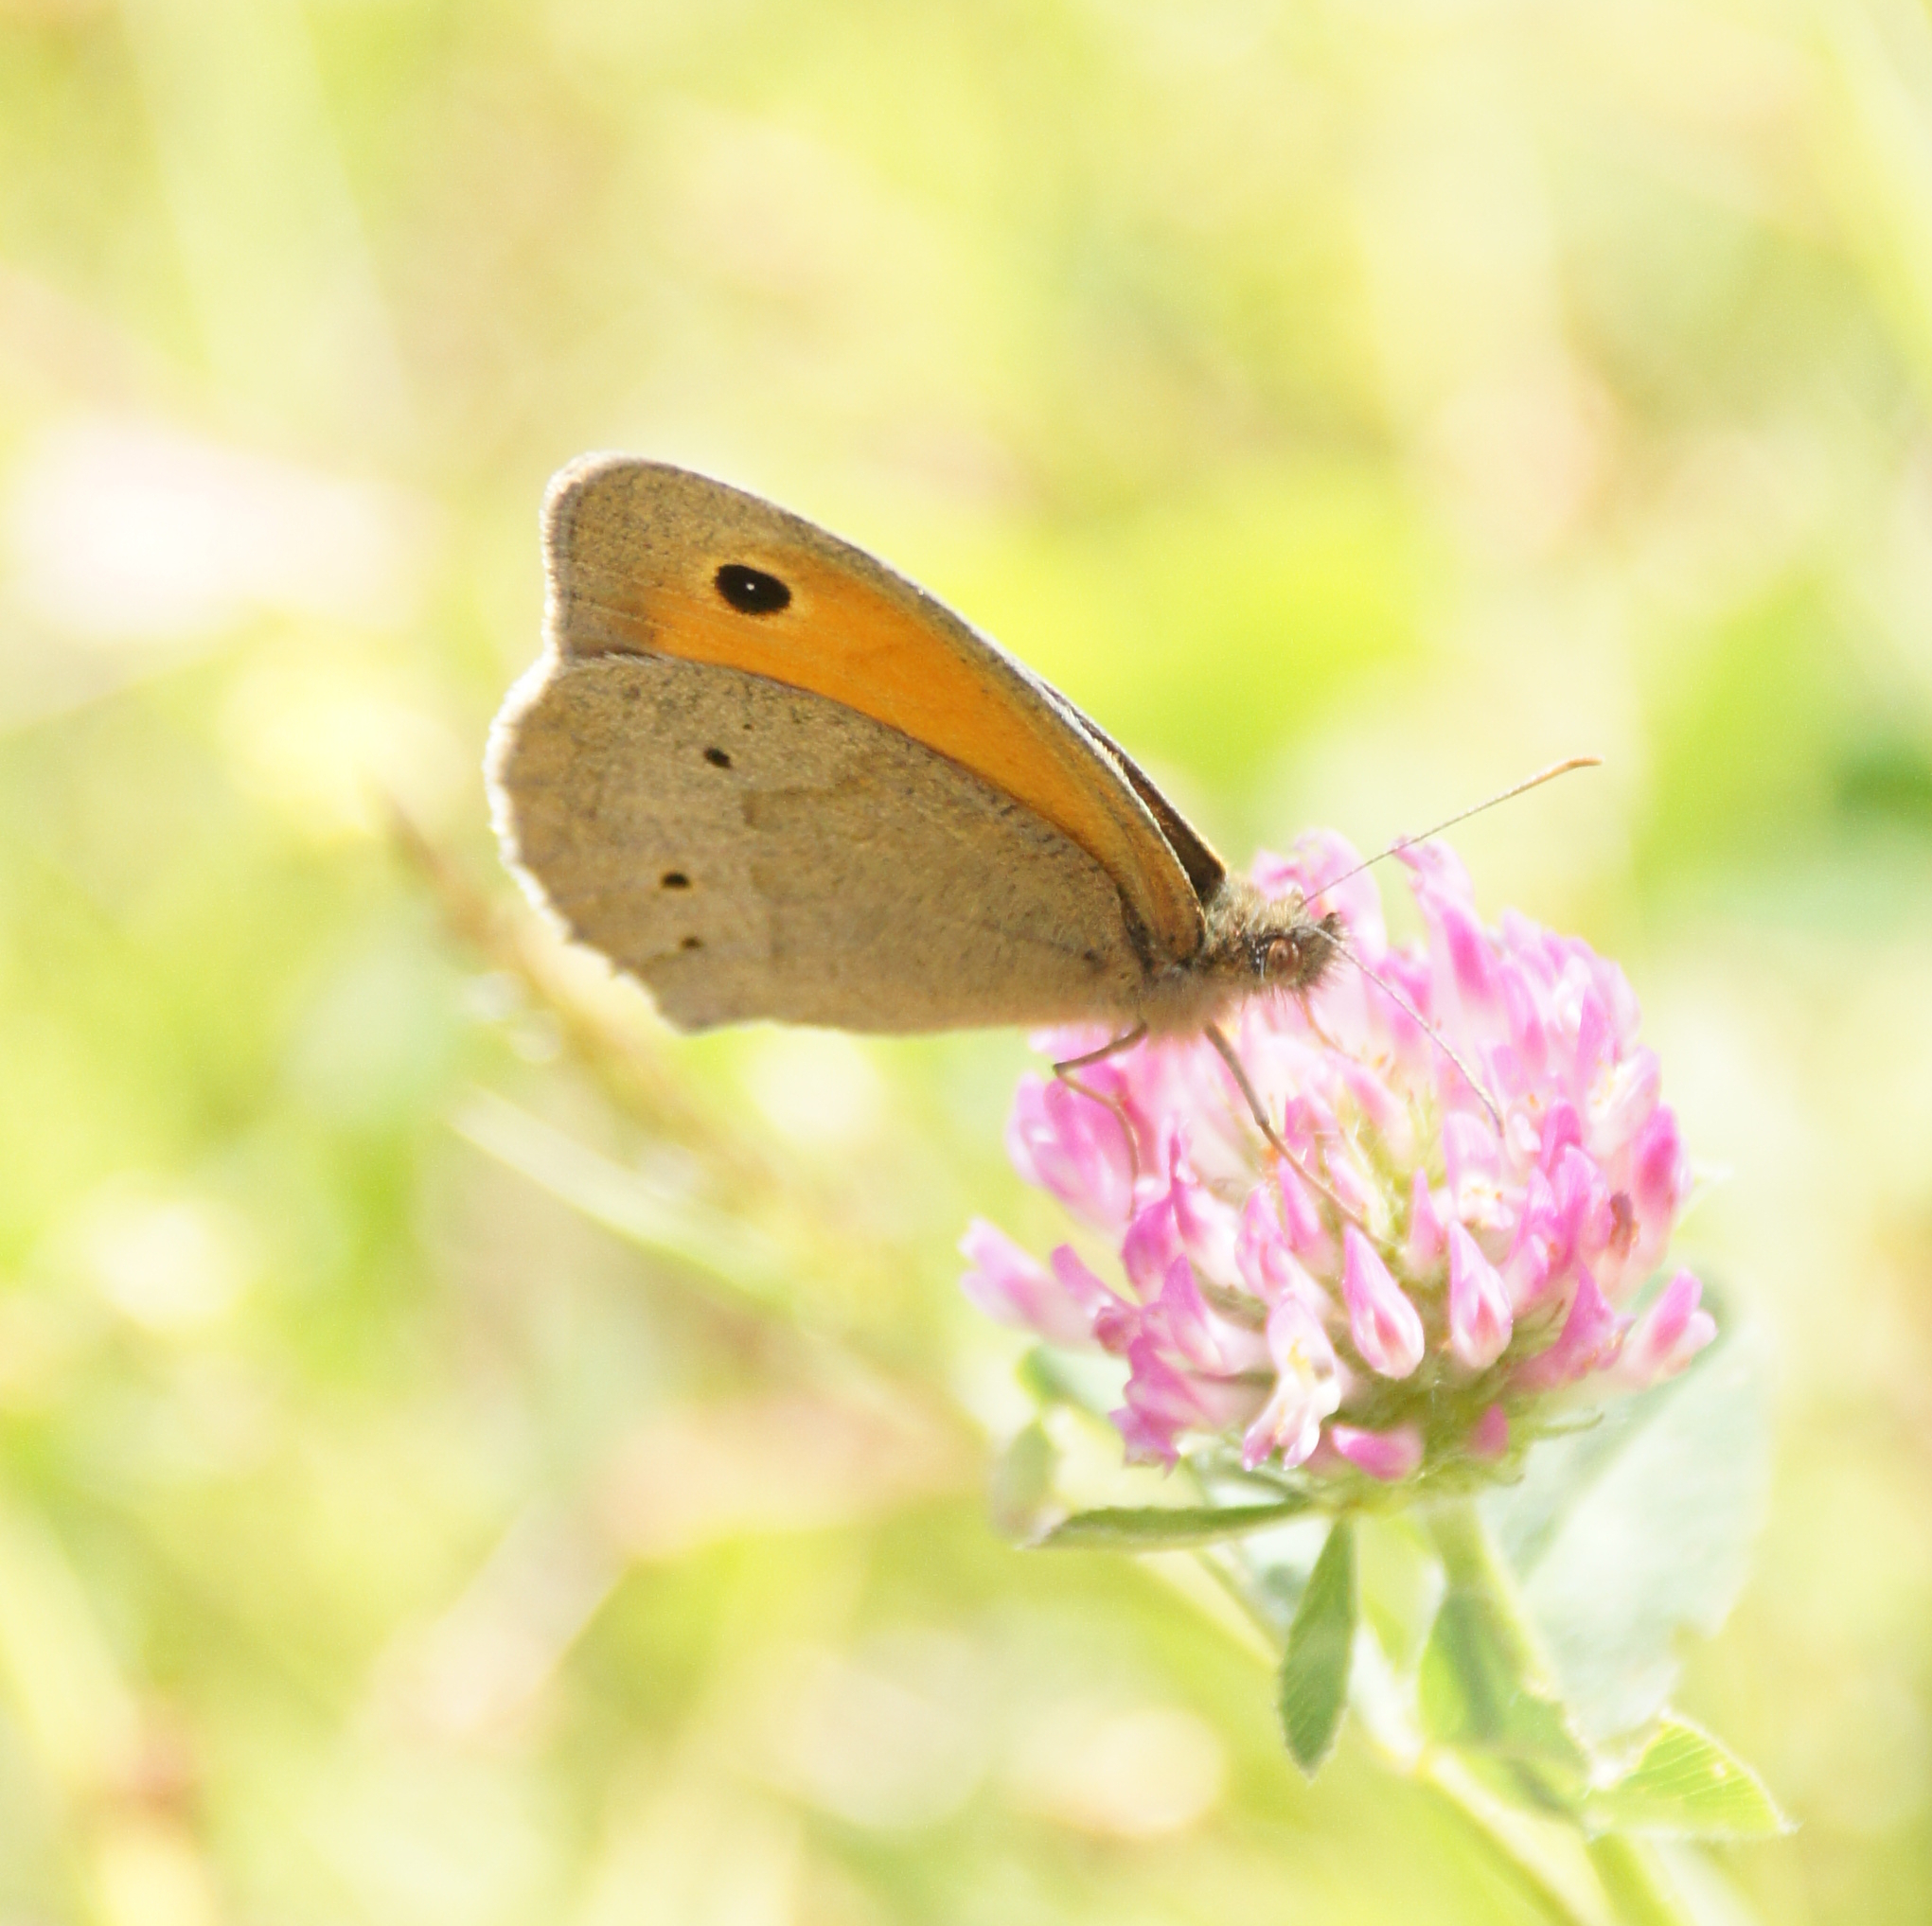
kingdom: Animalia
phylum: Arthropoda
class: Insecta
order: Lepidoptera
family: Nymphalidae
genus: Maniola
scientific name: Maniola jurtina
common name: Meadow brown
